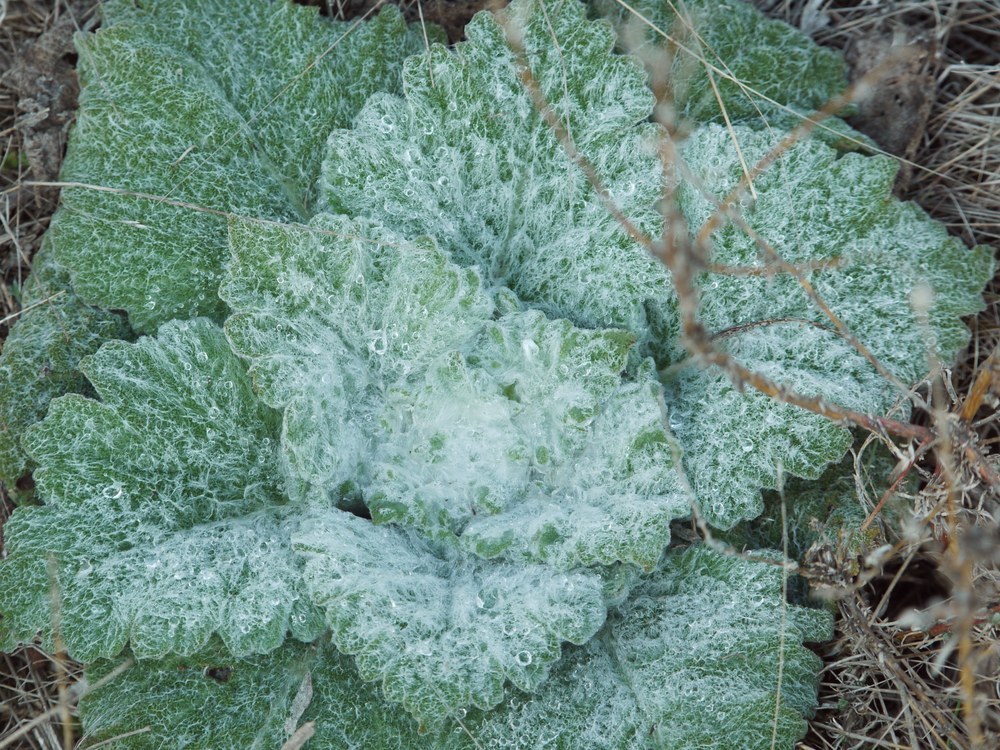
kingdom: Plantae
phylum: Tracheophyta
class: Magnoliopsida
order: Lamiales
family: Lamiaceae
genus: Salvia
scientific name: Salvia aethiopis
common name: Mediterranean sage
